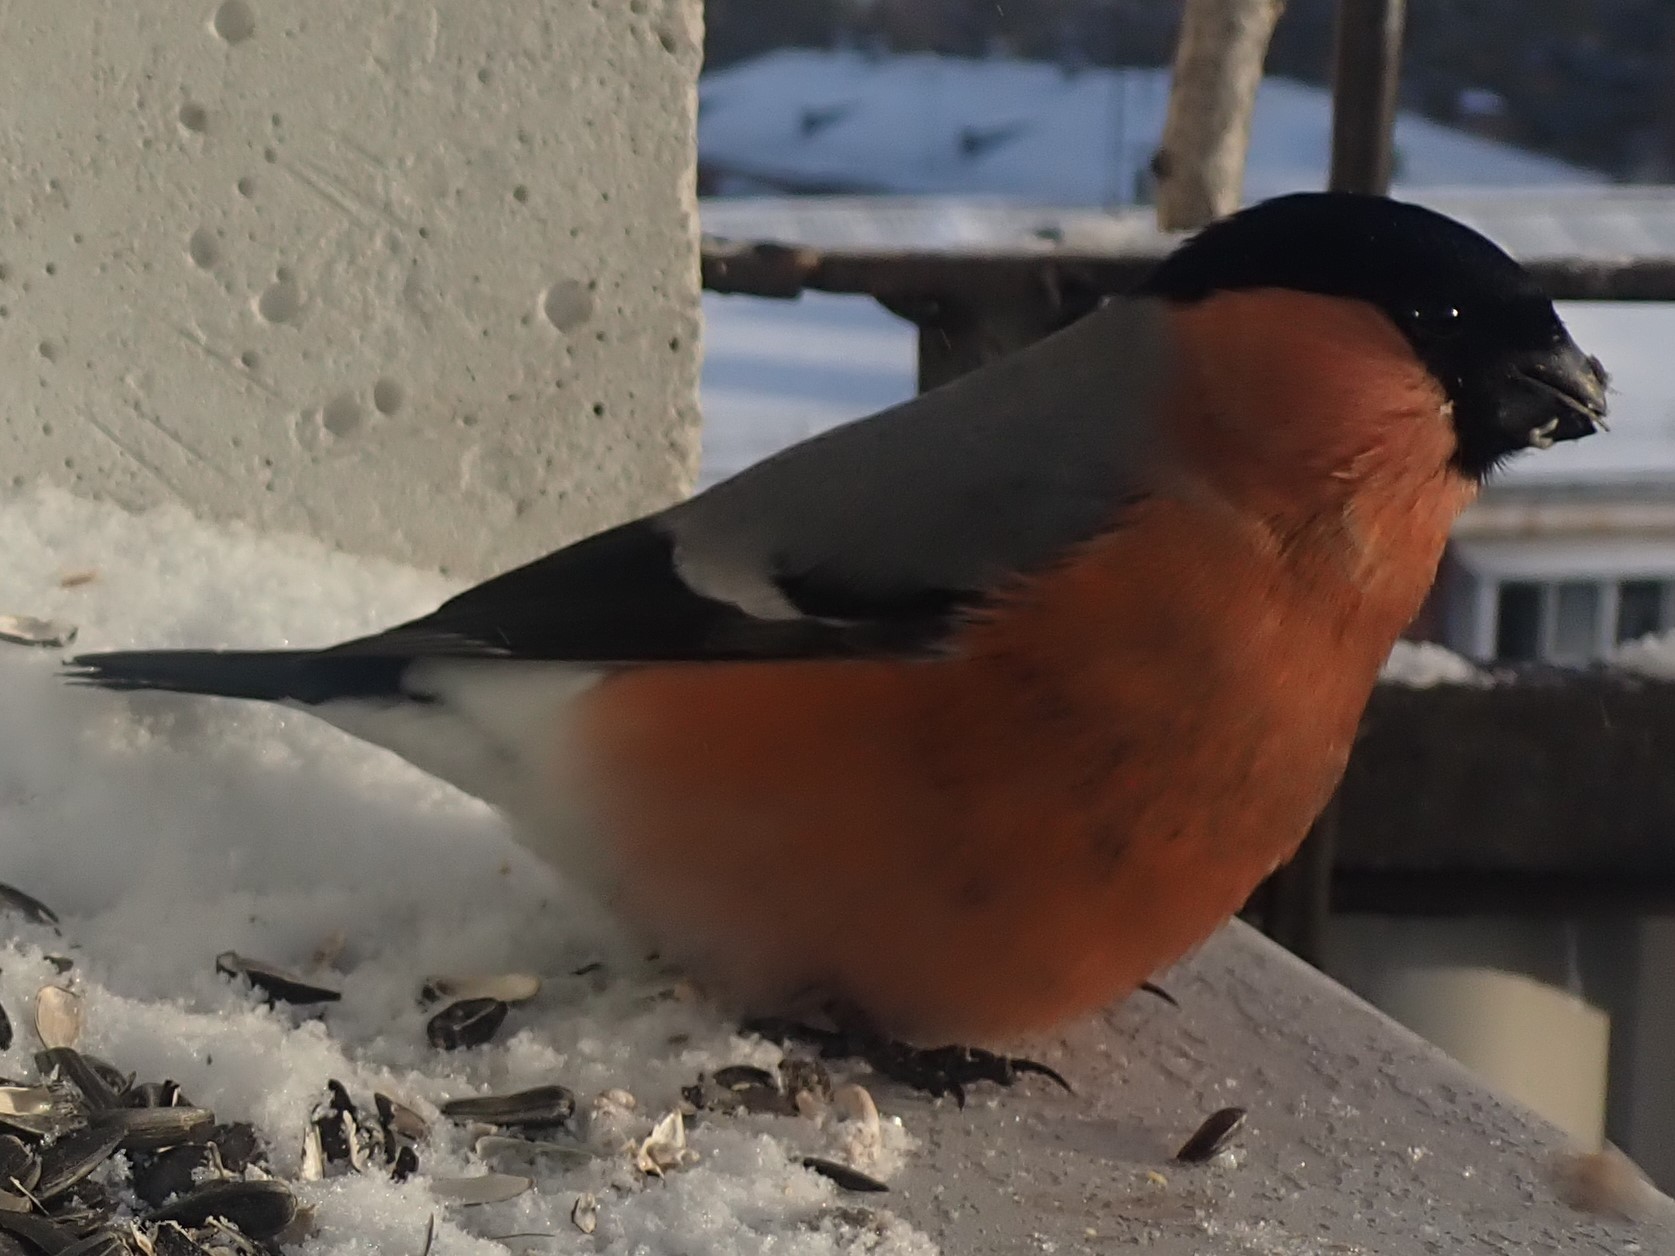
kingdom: Animalia
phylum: Chordata
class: Aves
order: Passeriformes
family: Fringillidae
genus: Pyrrhula
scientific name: Pyrrhula pyrrhula
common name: Eurasian bullfinch
